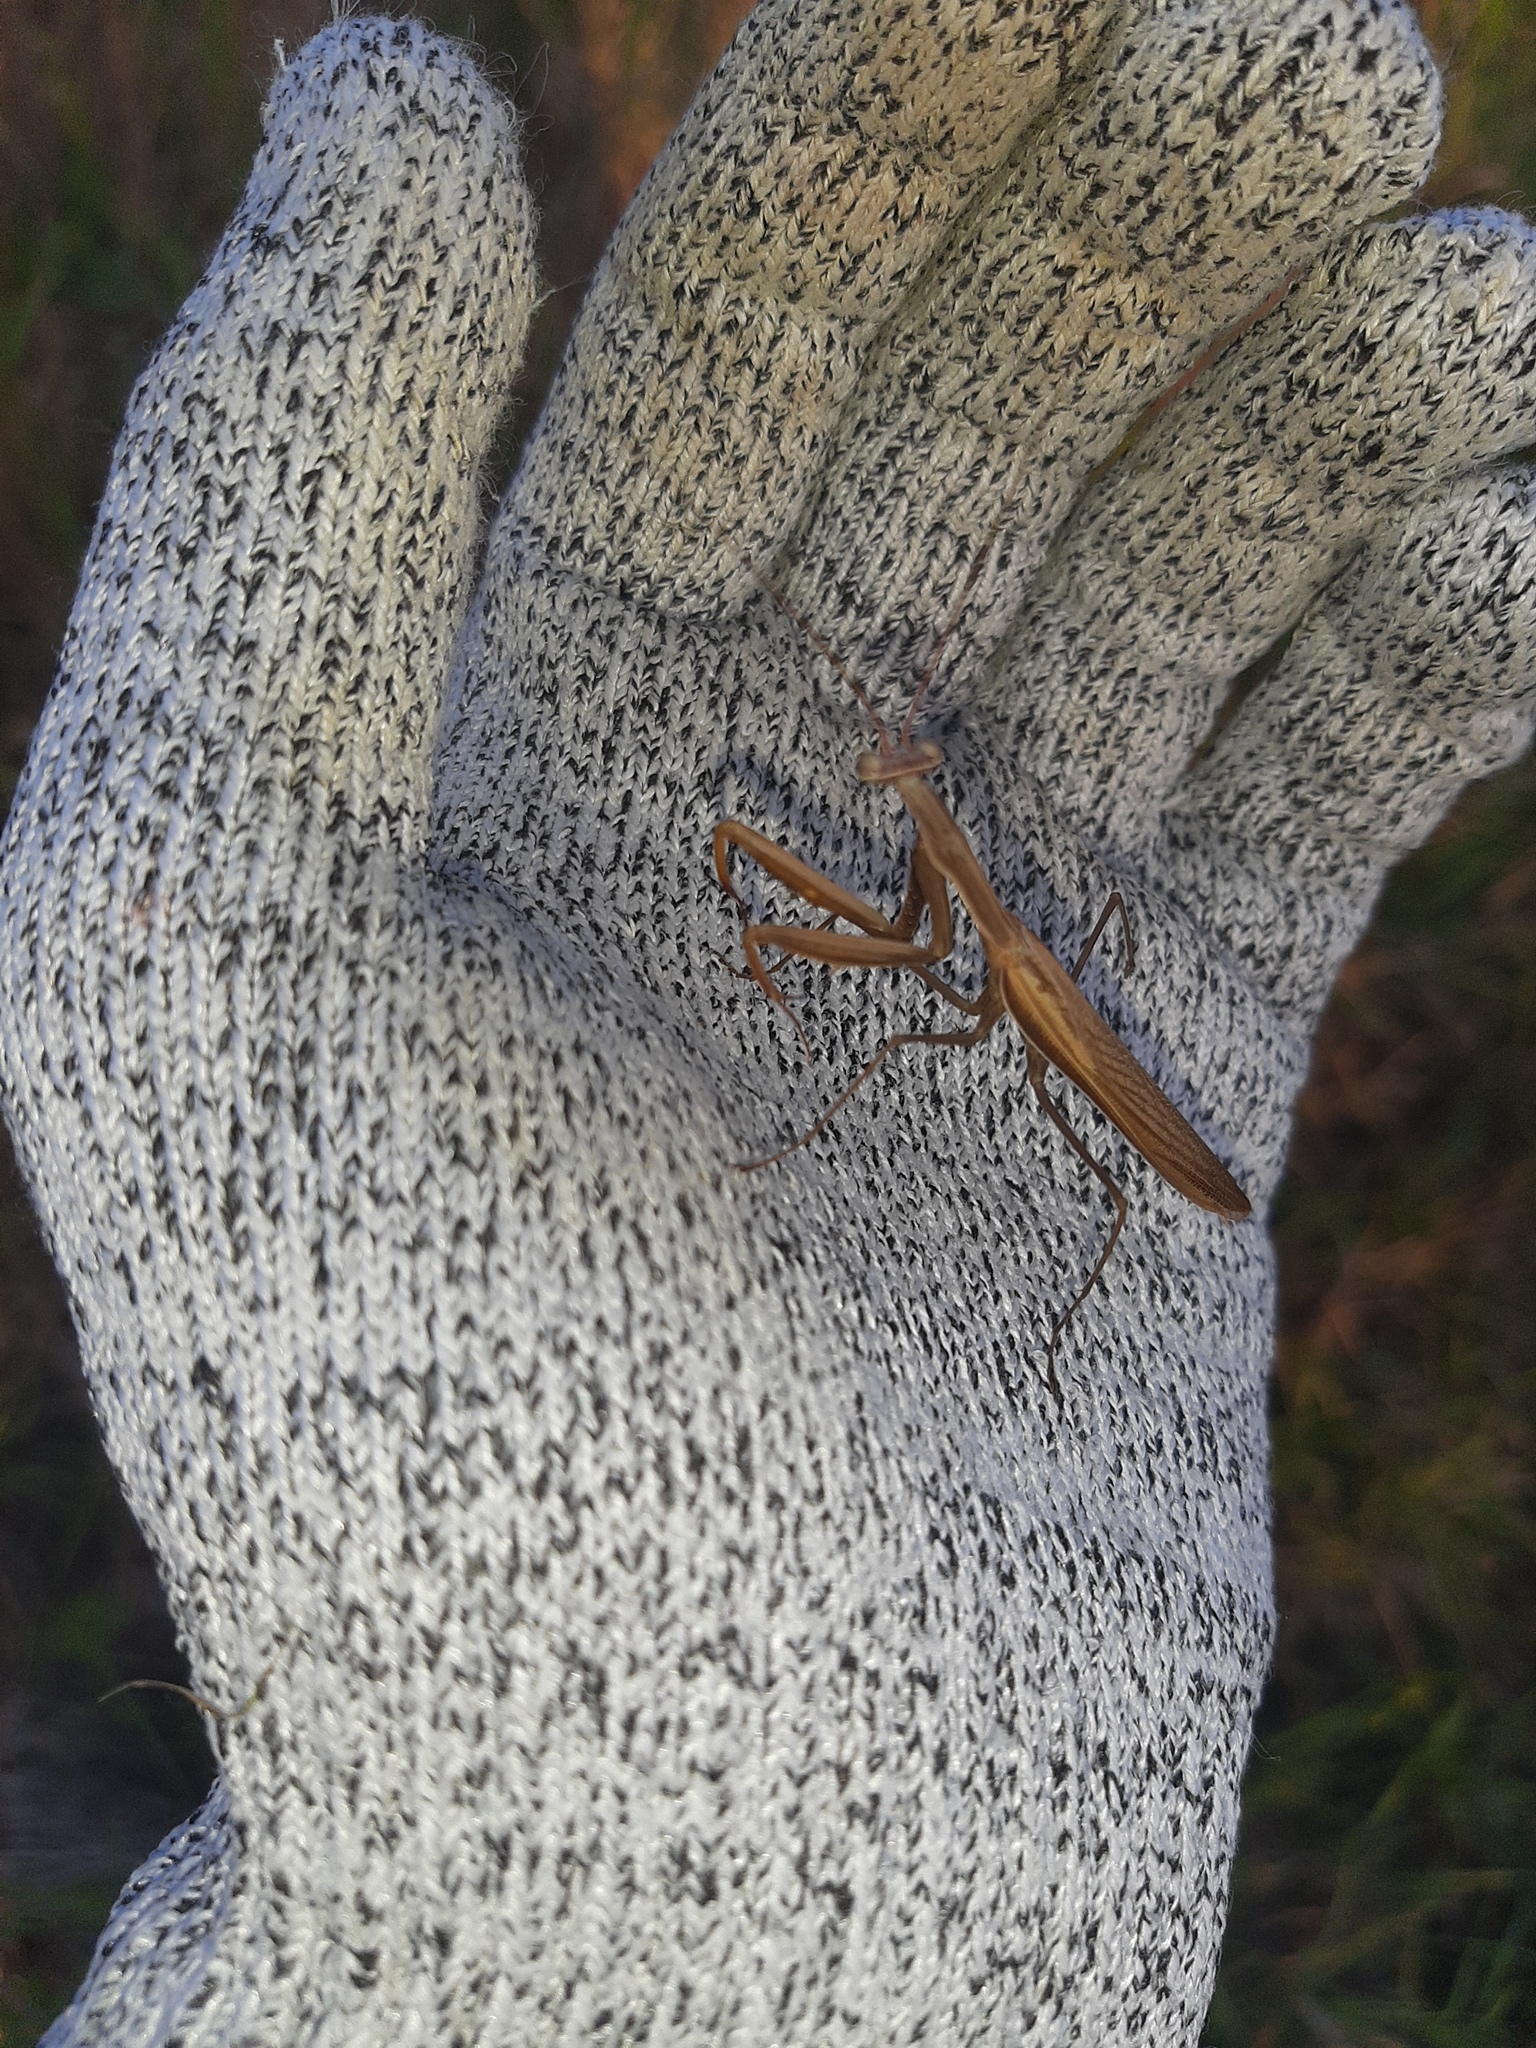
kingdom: Animalia
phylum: Arthropoda
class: Insecta
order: Mantodea
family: Mantidae
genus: Mantis
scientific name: Mantis religiosa
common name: Praying mantis
